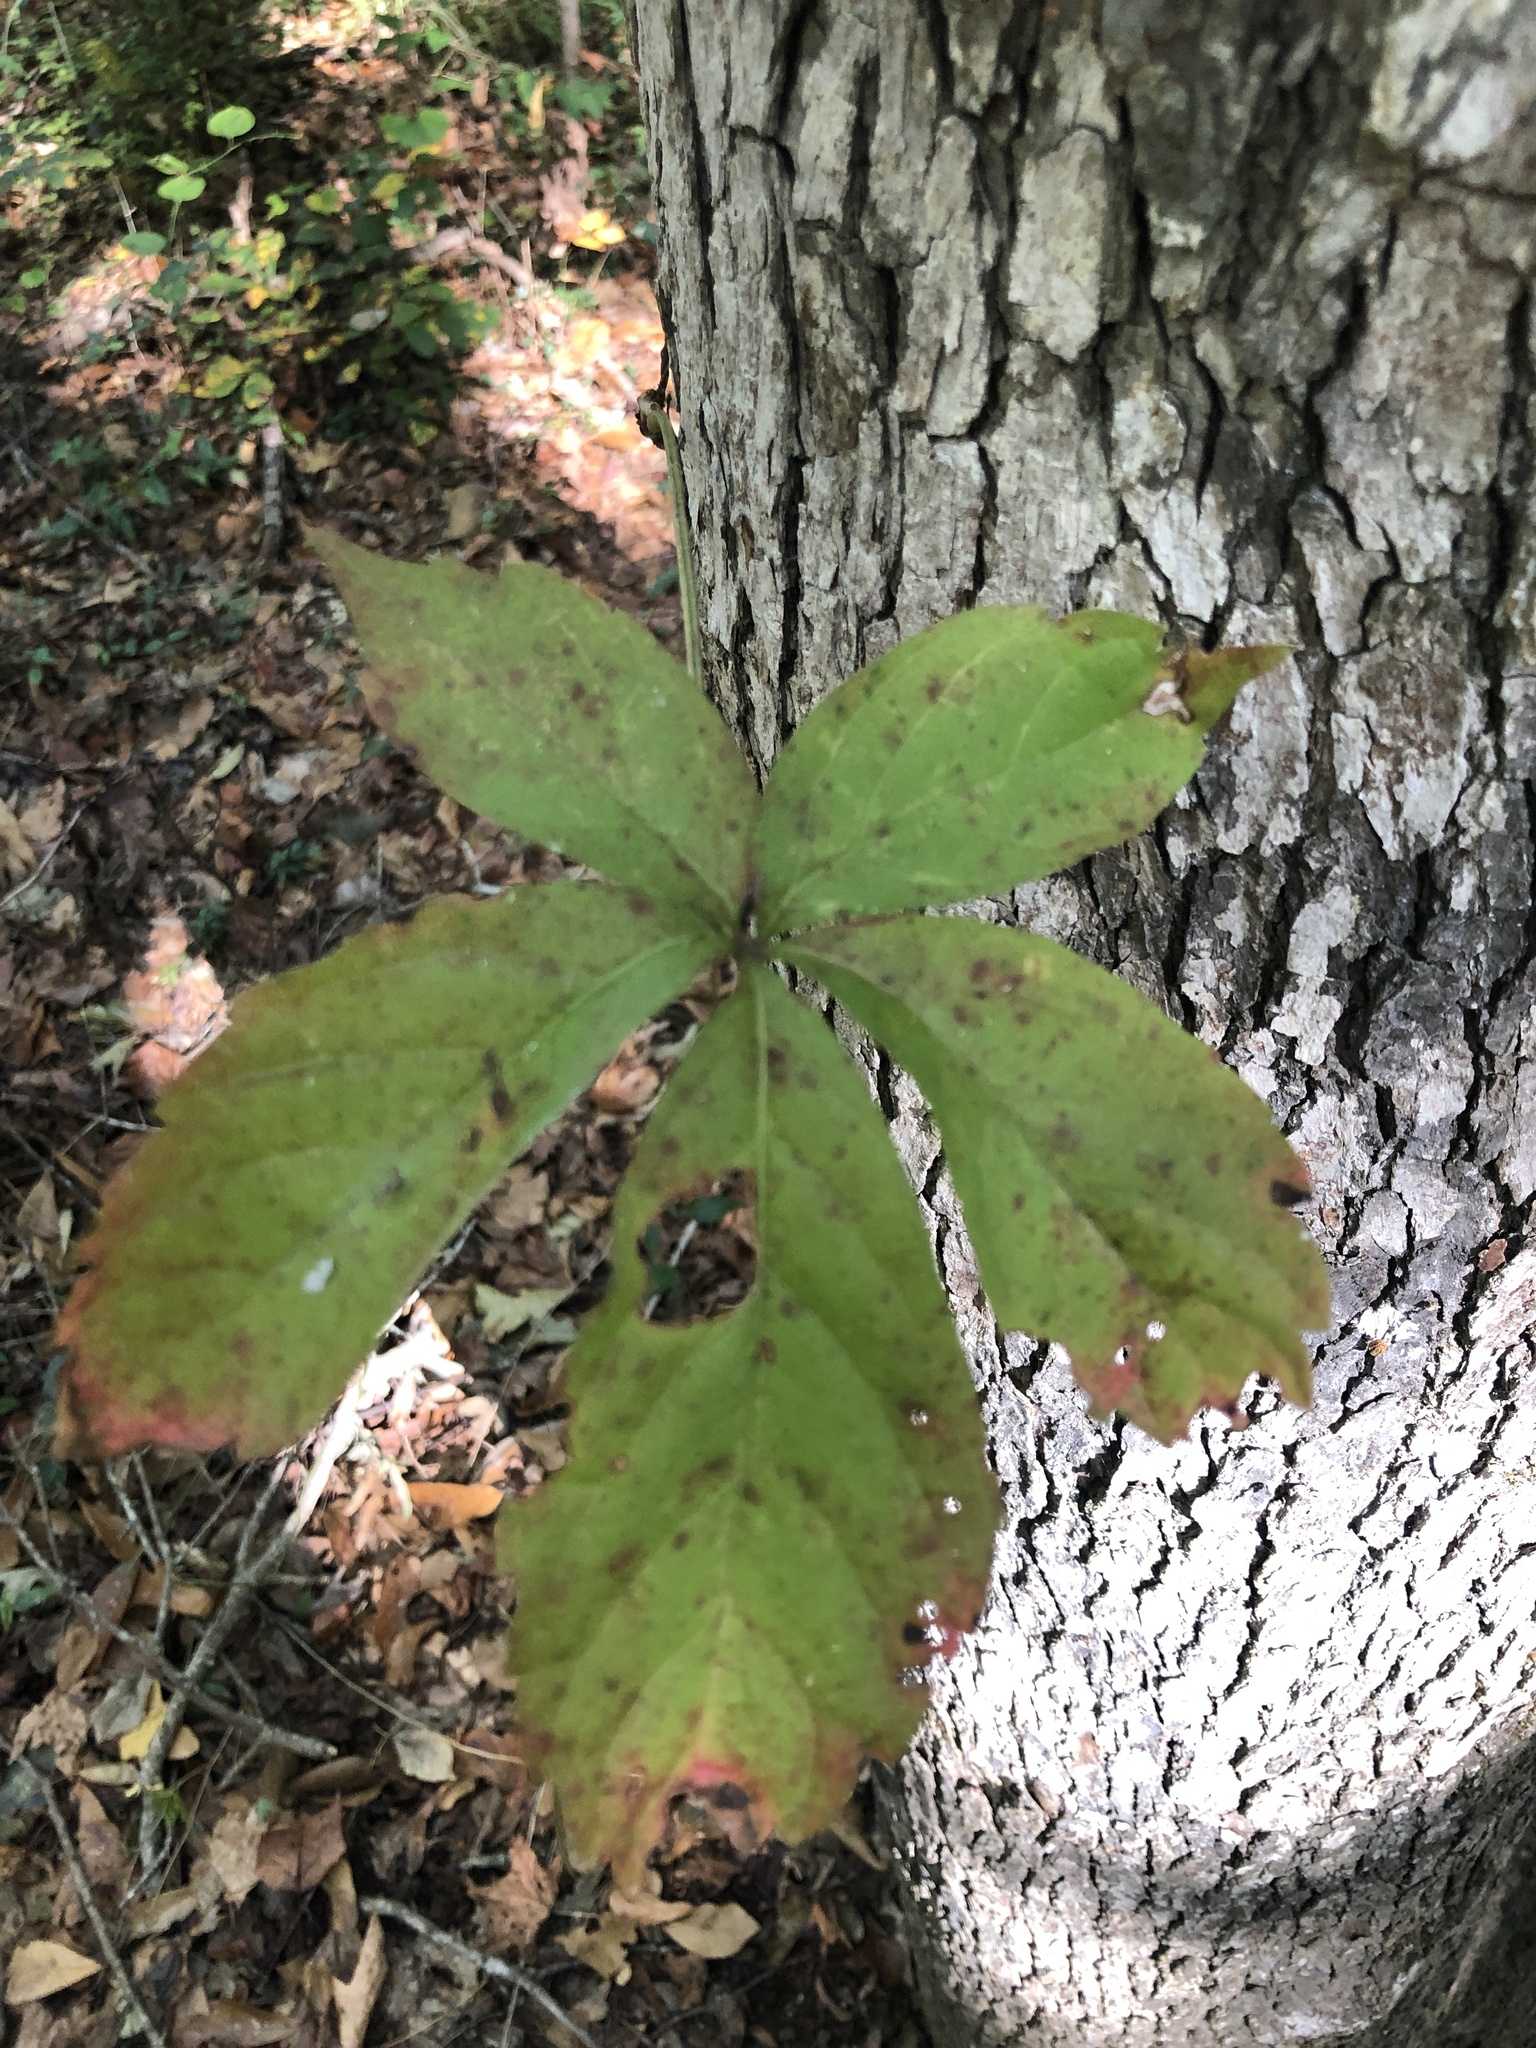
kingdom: Plantae
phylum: Tracheophyta
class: Magnoliopsida
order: Vitales
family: Vitaceae
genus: Parthenocissus
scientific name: Parthenocissus quinquefolia
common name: Virginia-creeper
